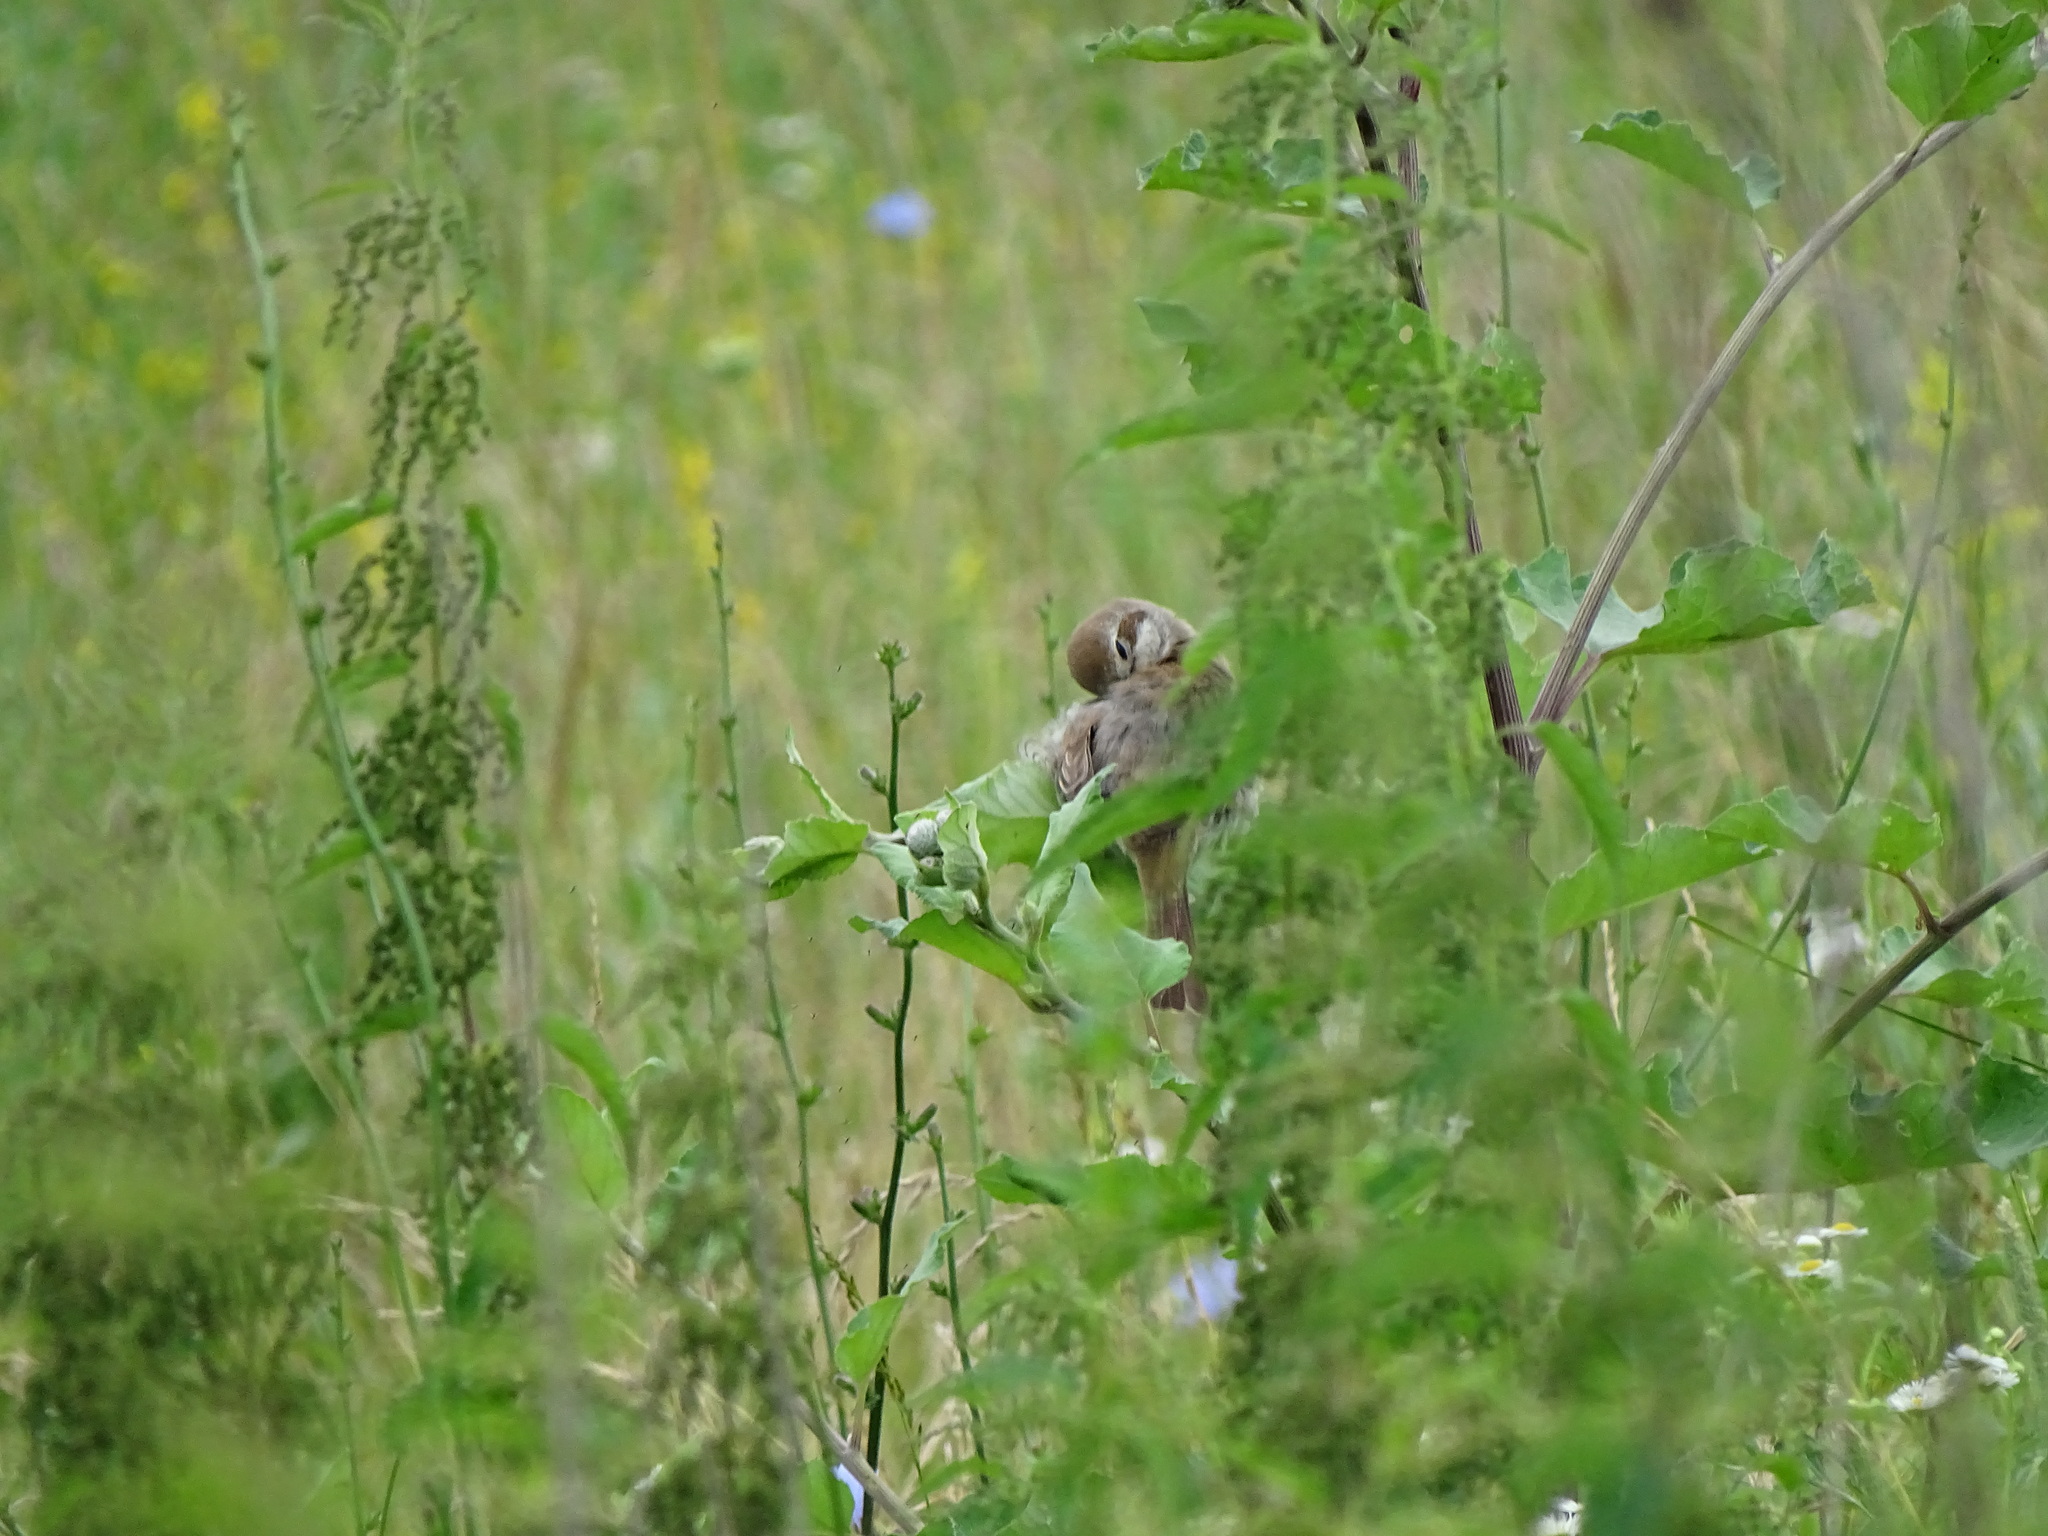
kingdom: Animalia
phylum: Chordata
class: Aves
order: Passeriformes
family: Laniidae
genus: Lanius
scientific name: Lanius collurio
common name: Red-backed shrike
